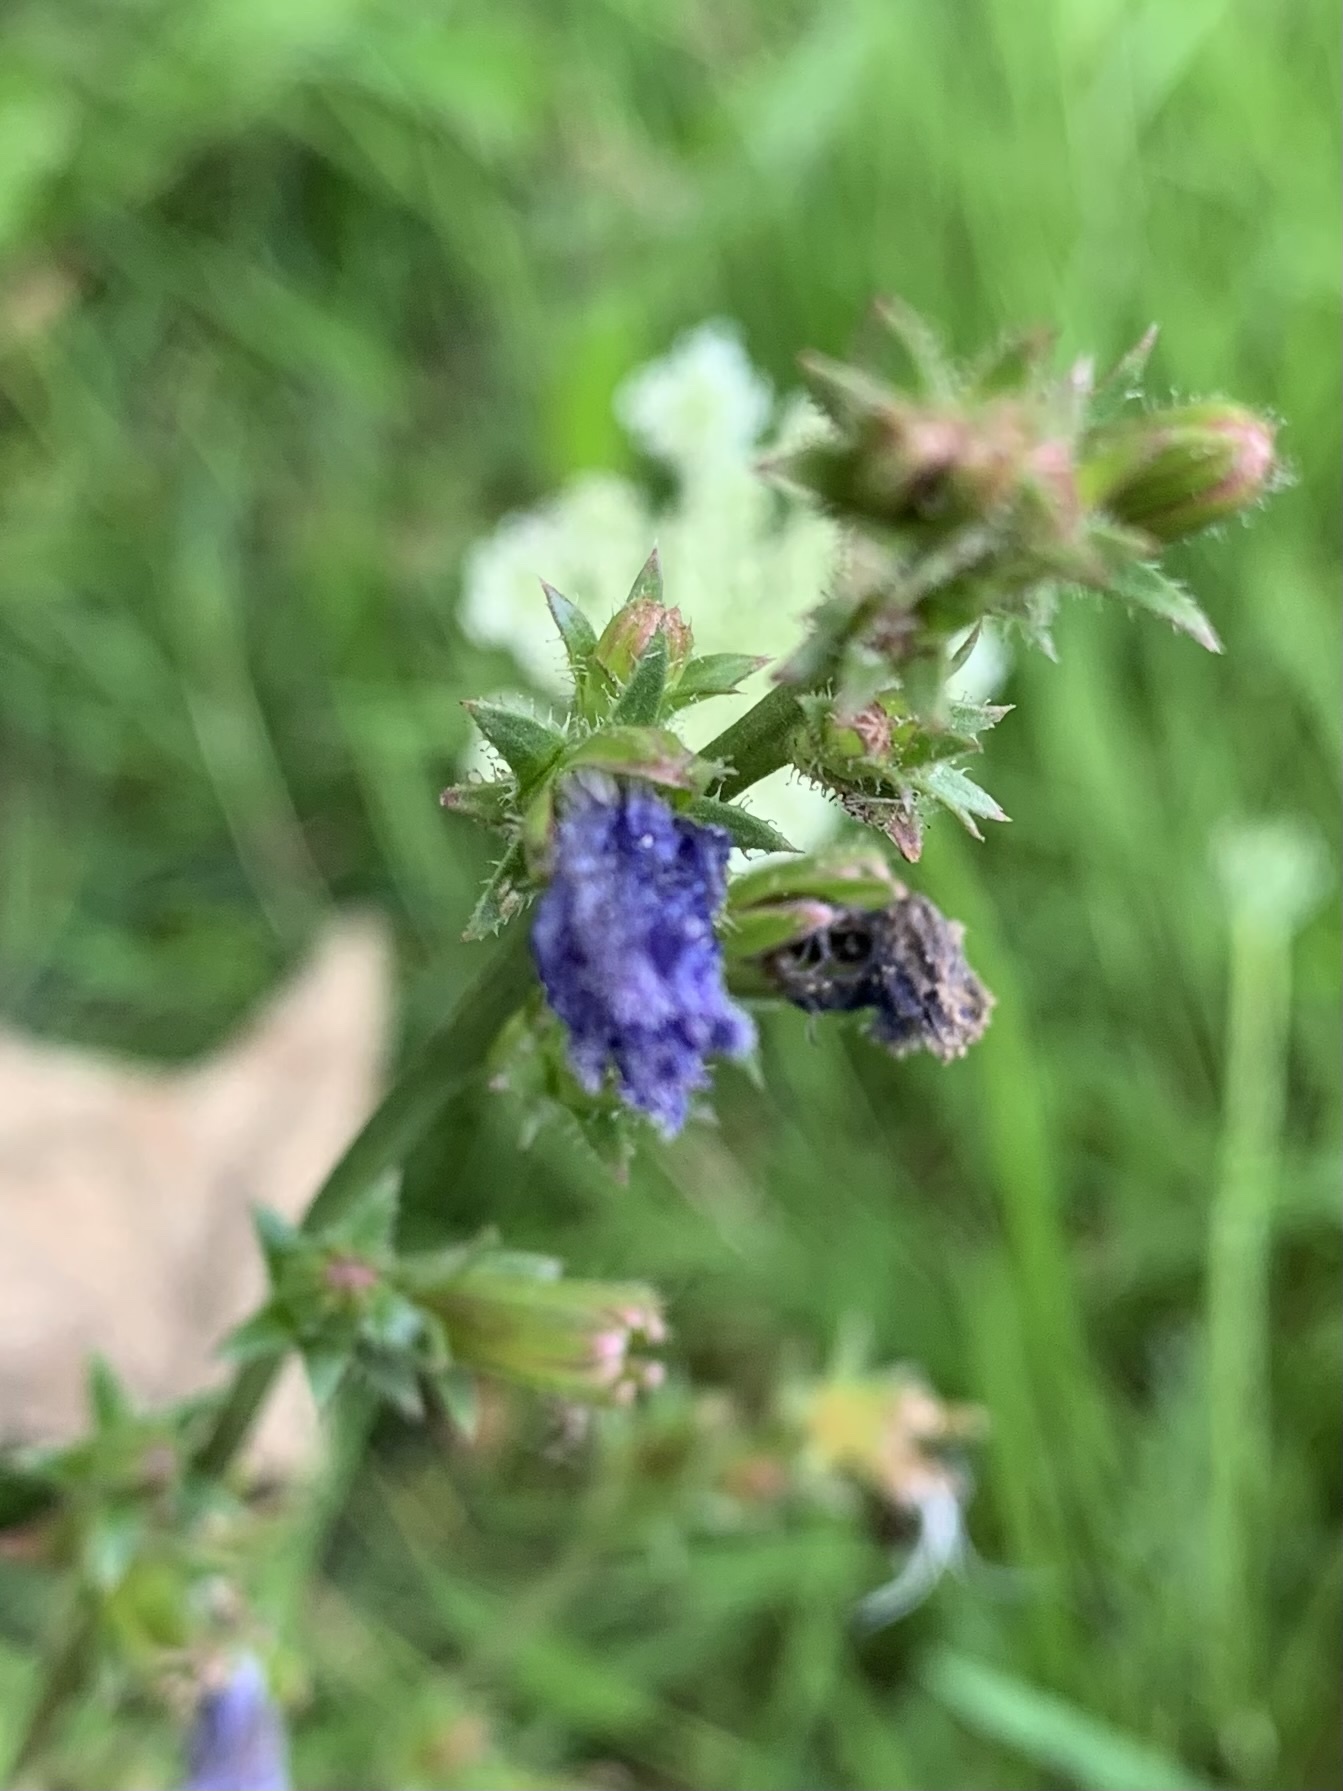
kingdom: Plantae
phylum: Tracheophyta
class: Magnoliopsida
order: Asterales
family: Asteraceae
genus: Cichorium
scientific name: Cichorium intybus
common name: Chicory
